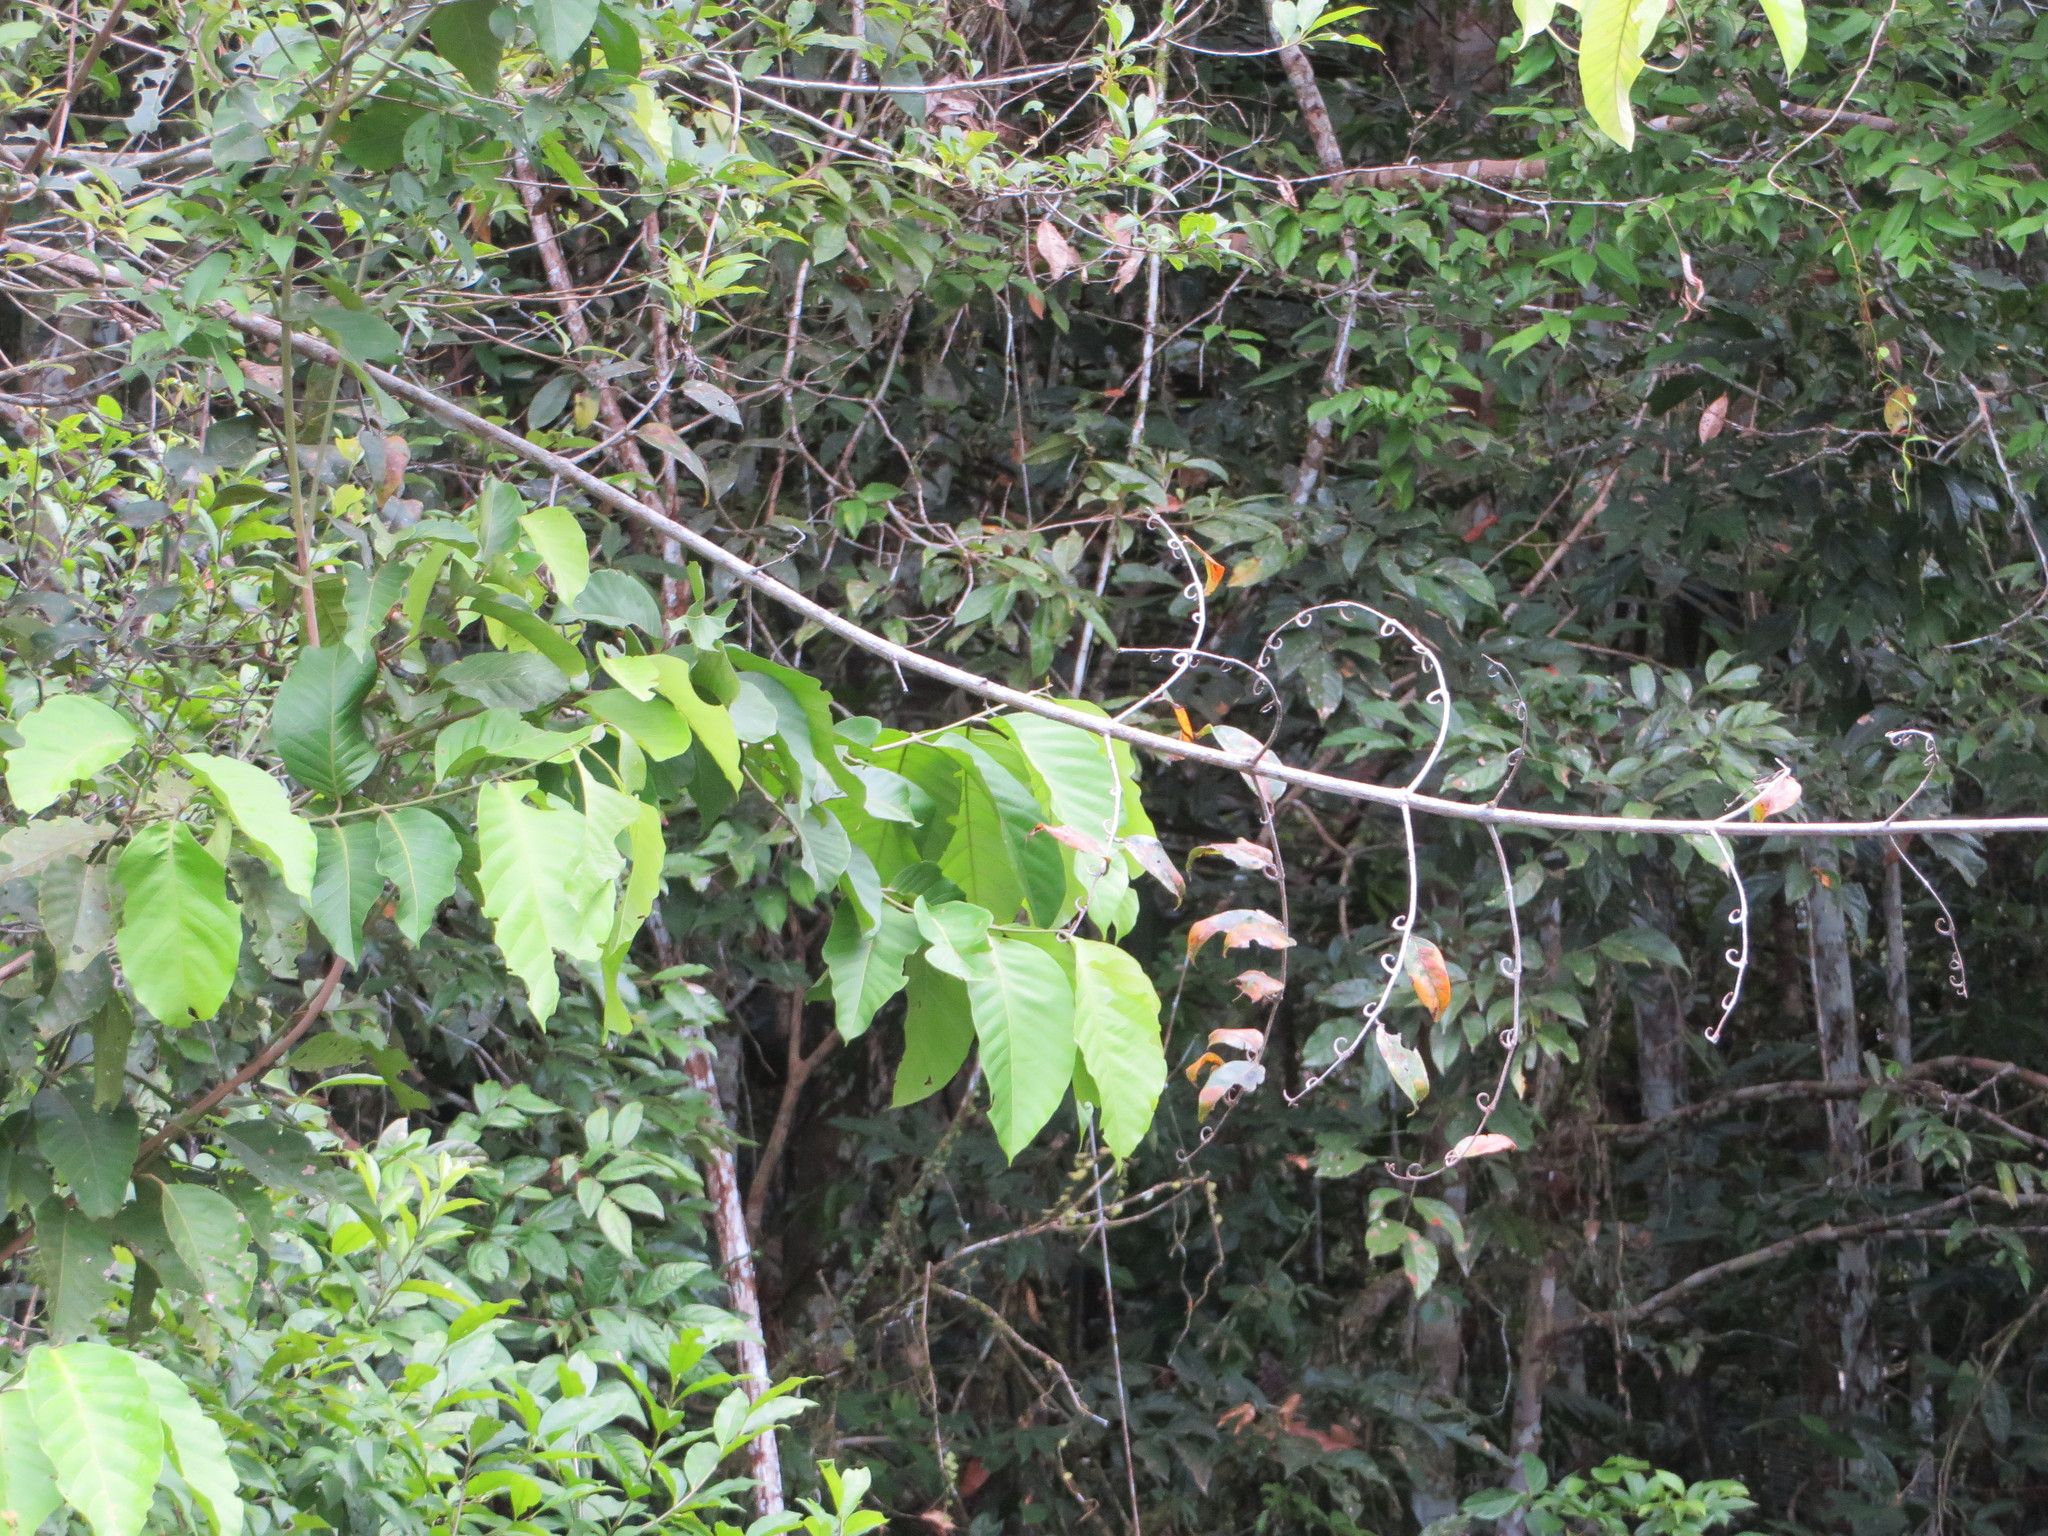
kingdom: Plantae
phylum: Tracheophyta
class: Magnoliopsida
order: Gentianales
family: Rubiaceae
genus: Uncaria
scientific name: Uncaria guianensis
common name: Cat's-claw
